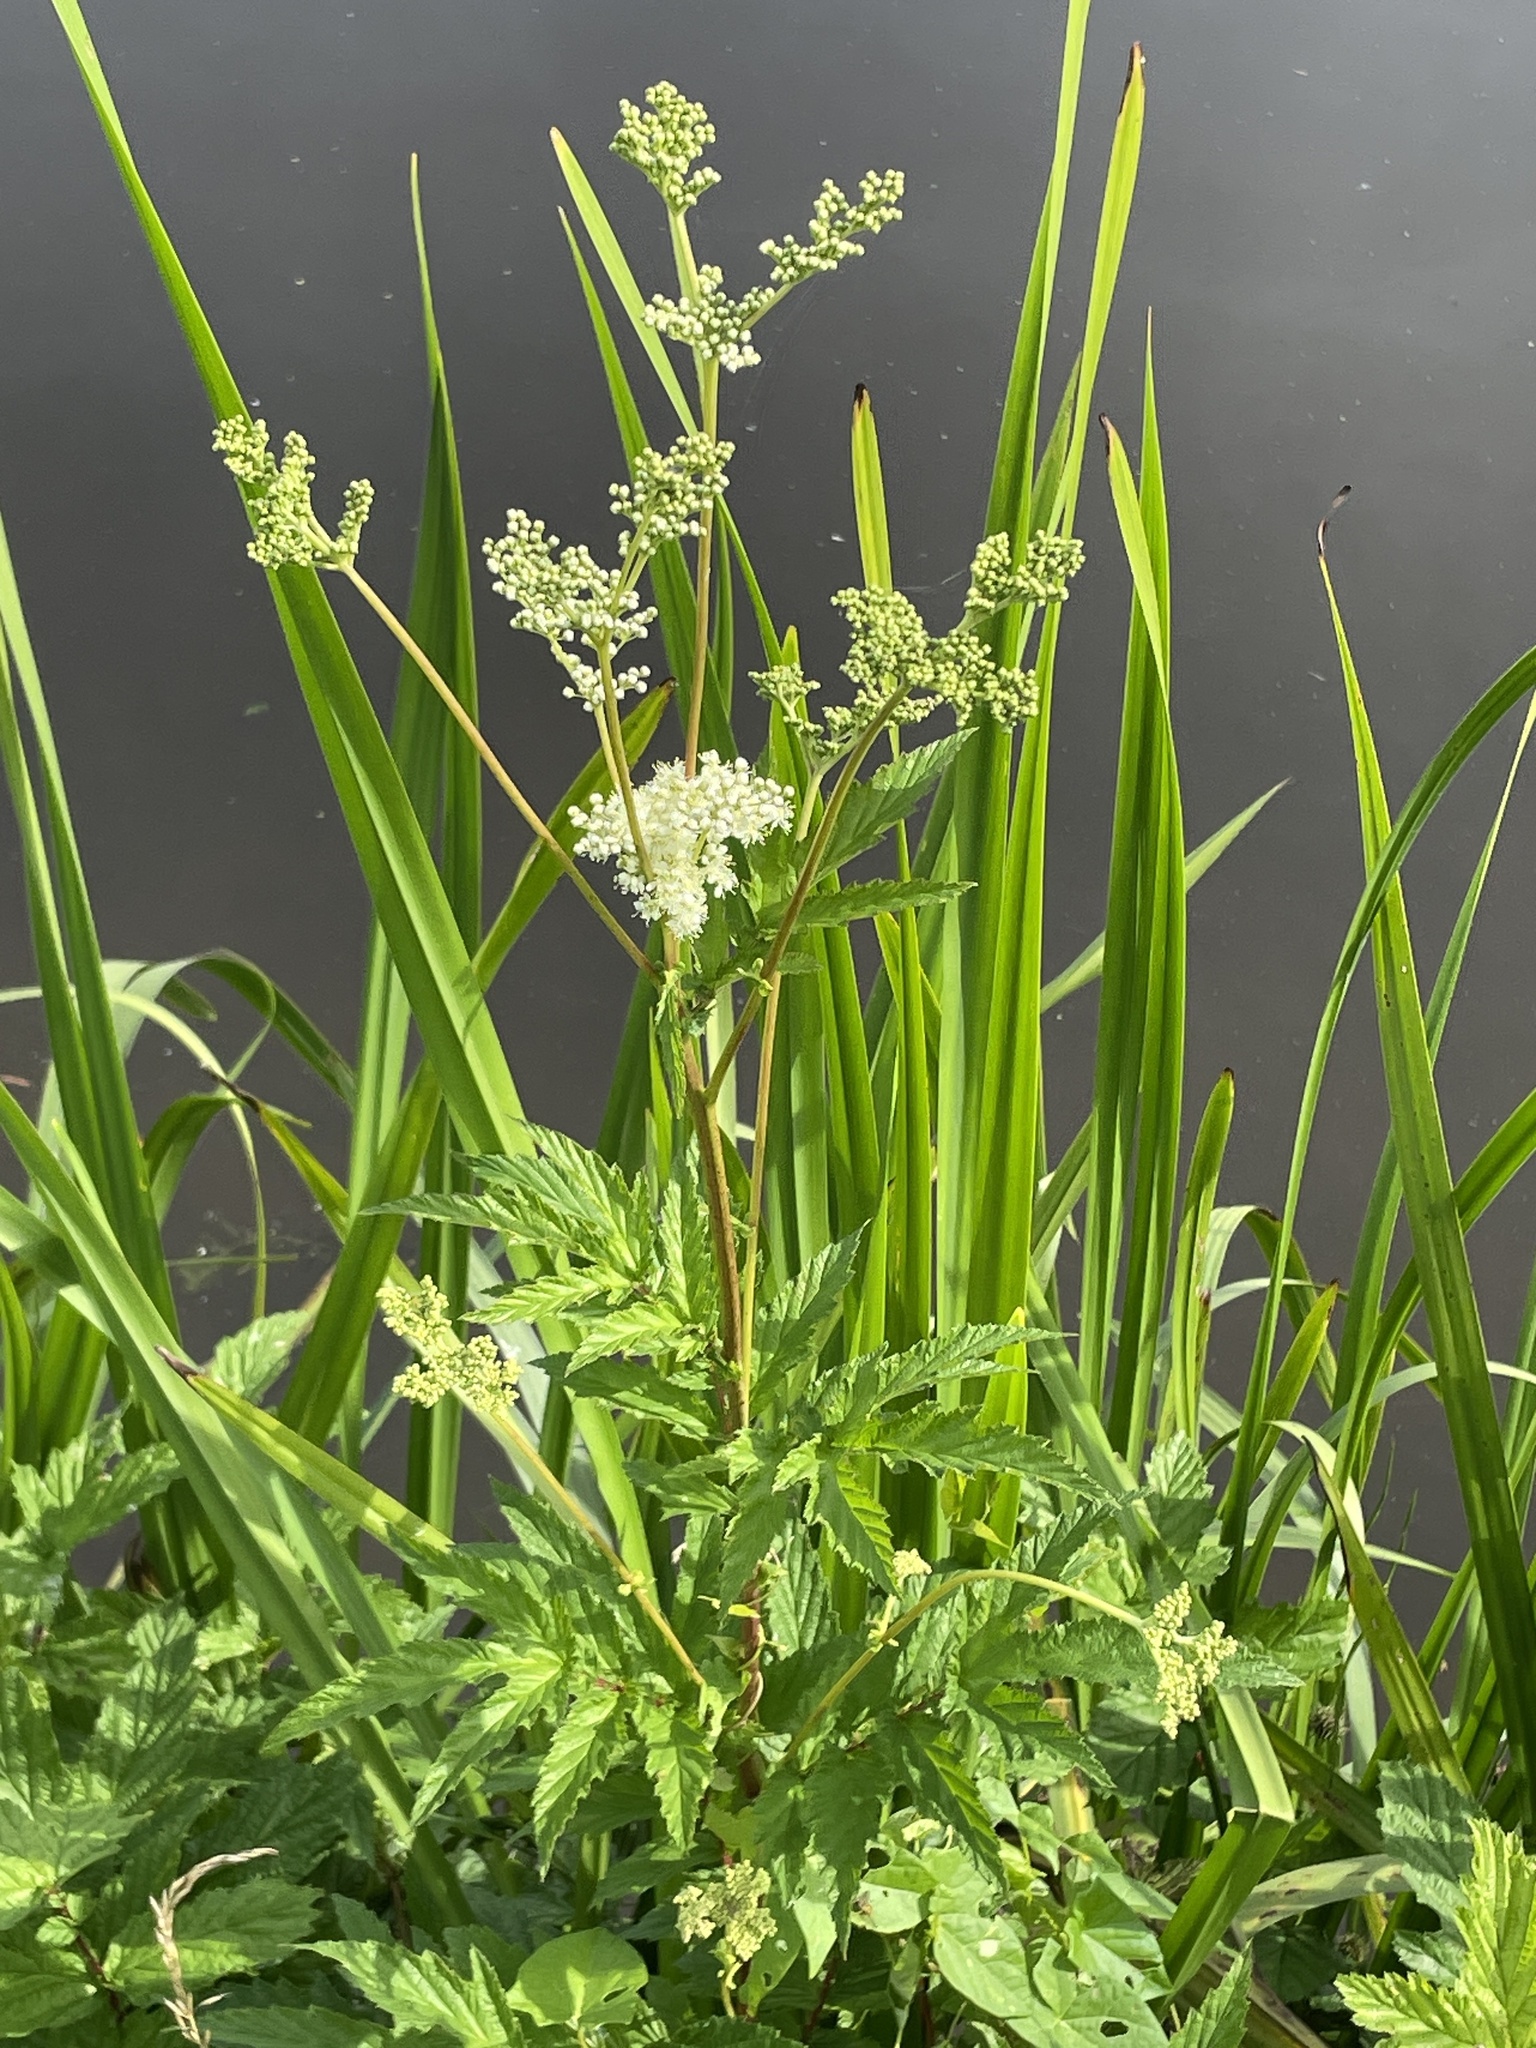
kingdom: Plantae
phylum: Tracheophyta
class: Magnoliopsida
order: Rosales
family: Rosaceae
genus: Filipendula
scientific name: Filipendula ulmaria
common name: Meadowsweet
